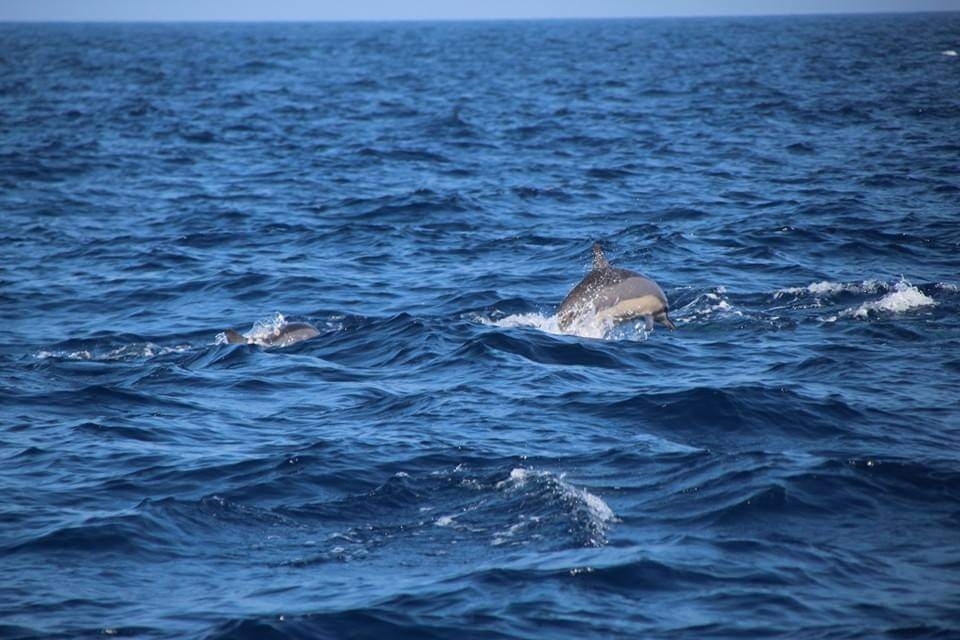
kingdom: Animalia
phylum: Chordata
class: Mammalia
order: Cetacea
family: Delphinidae
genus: Stenella
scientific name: Stenella longirostris
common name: Spinner dolphin
